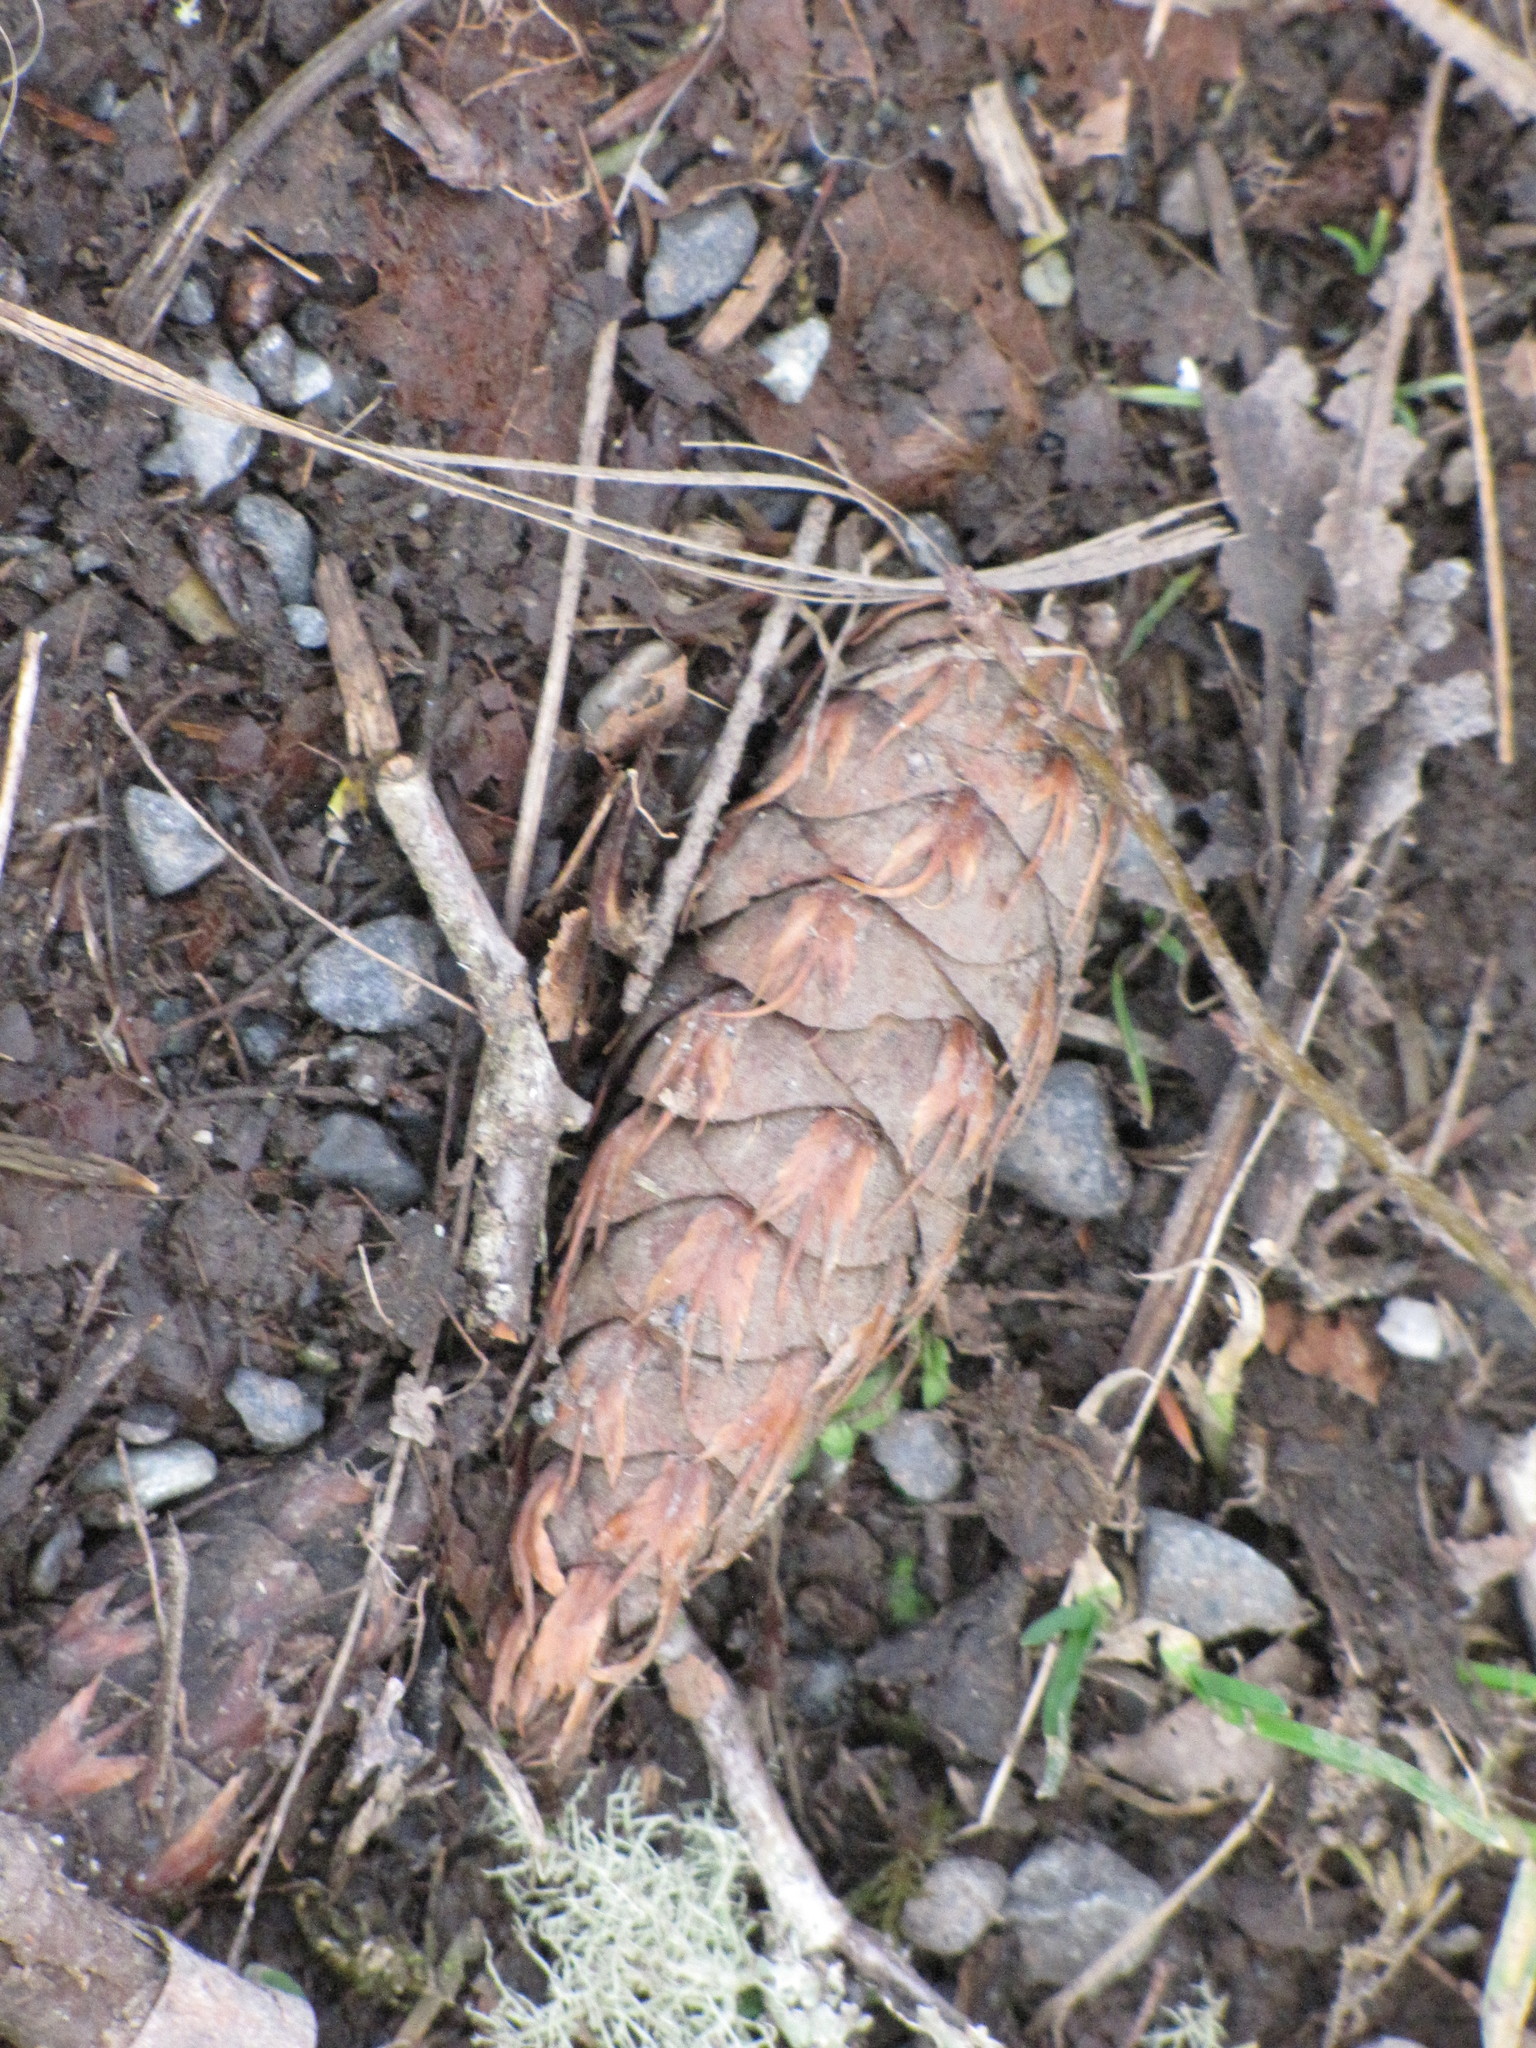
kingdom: Plantae
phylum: Tracheophyta
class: Pinopsida
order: Pinales
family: Pinaceae
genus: Pseudotsuga
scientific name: Pseudotsuga menziesii
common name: Douglas fir
